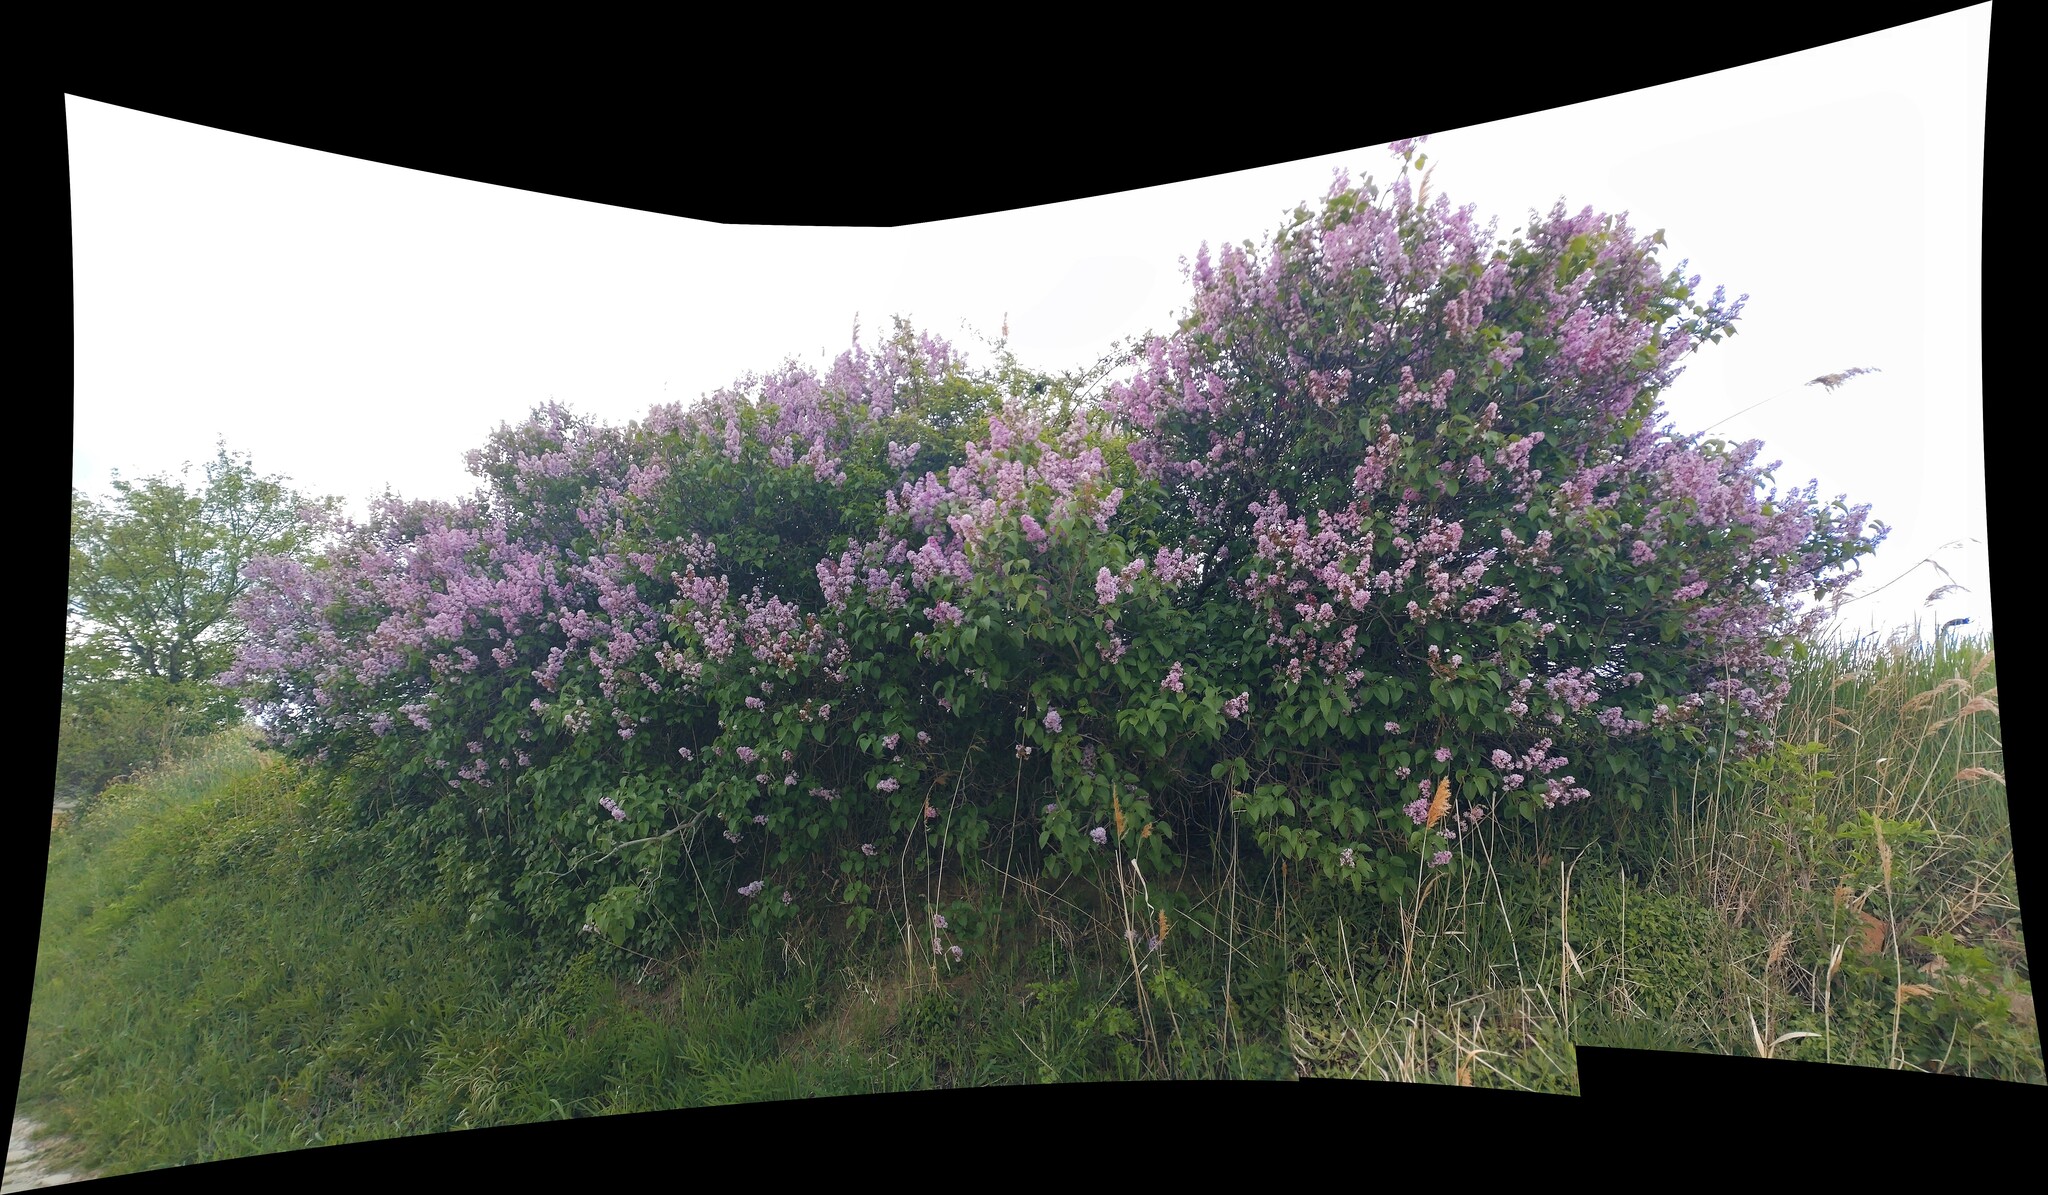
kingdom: Plantae
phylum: Tracheophyta
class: Magnoliopsida
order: Lamiales
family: Oleaceae
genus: Syringa
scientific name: Syringa vulgaris
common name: Common lilac
